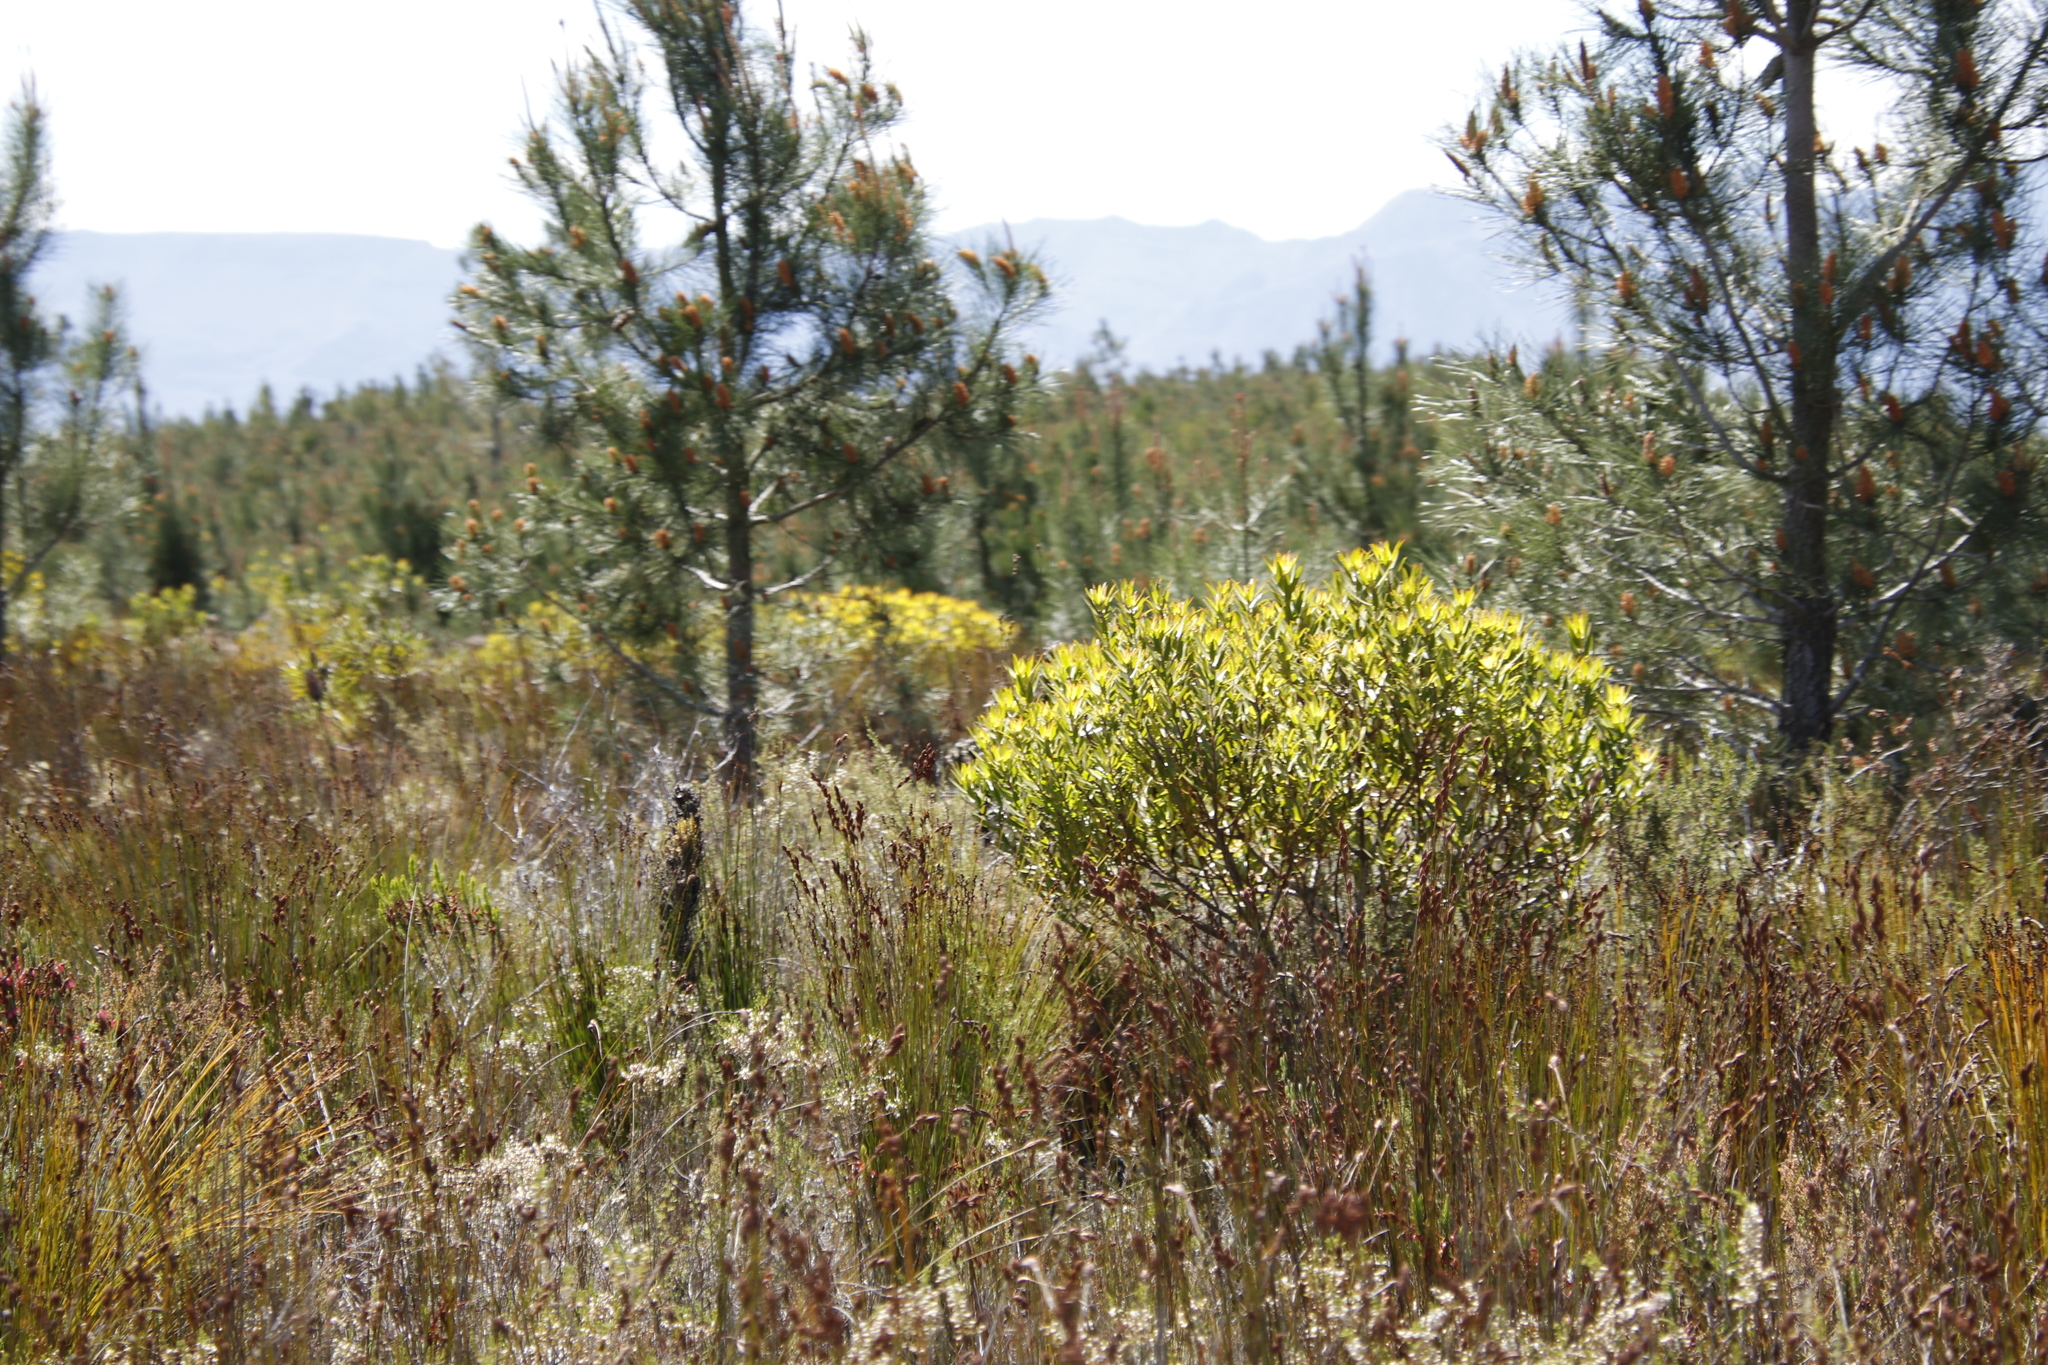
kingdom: Plantae
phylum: Tracheophyta
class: Magnoliopsida
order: Proteales
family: Proteaceae
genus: Leucadendron
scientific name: Leucadendron laureolum
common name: Golden sunshinebush
